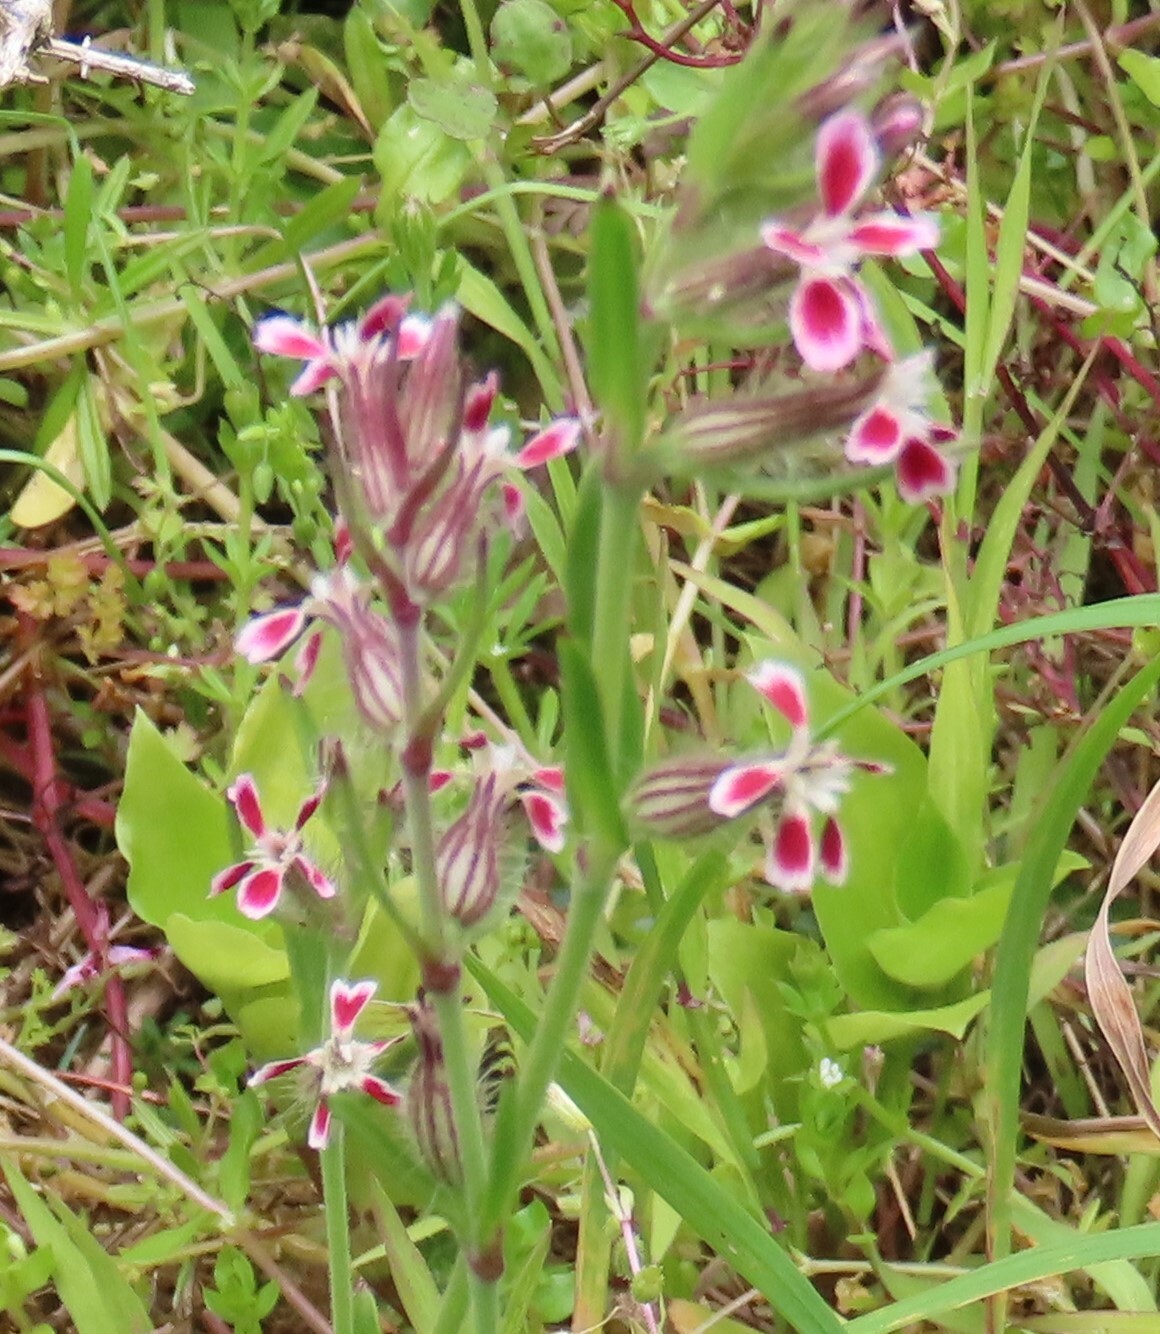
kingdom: Plantae
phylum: Tracheophyta
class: Magnoliopsida
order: Caryophyllales
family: Caryophyllaceae
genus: Silene
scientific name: Silene gallica
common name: Small-flowered catchfly
